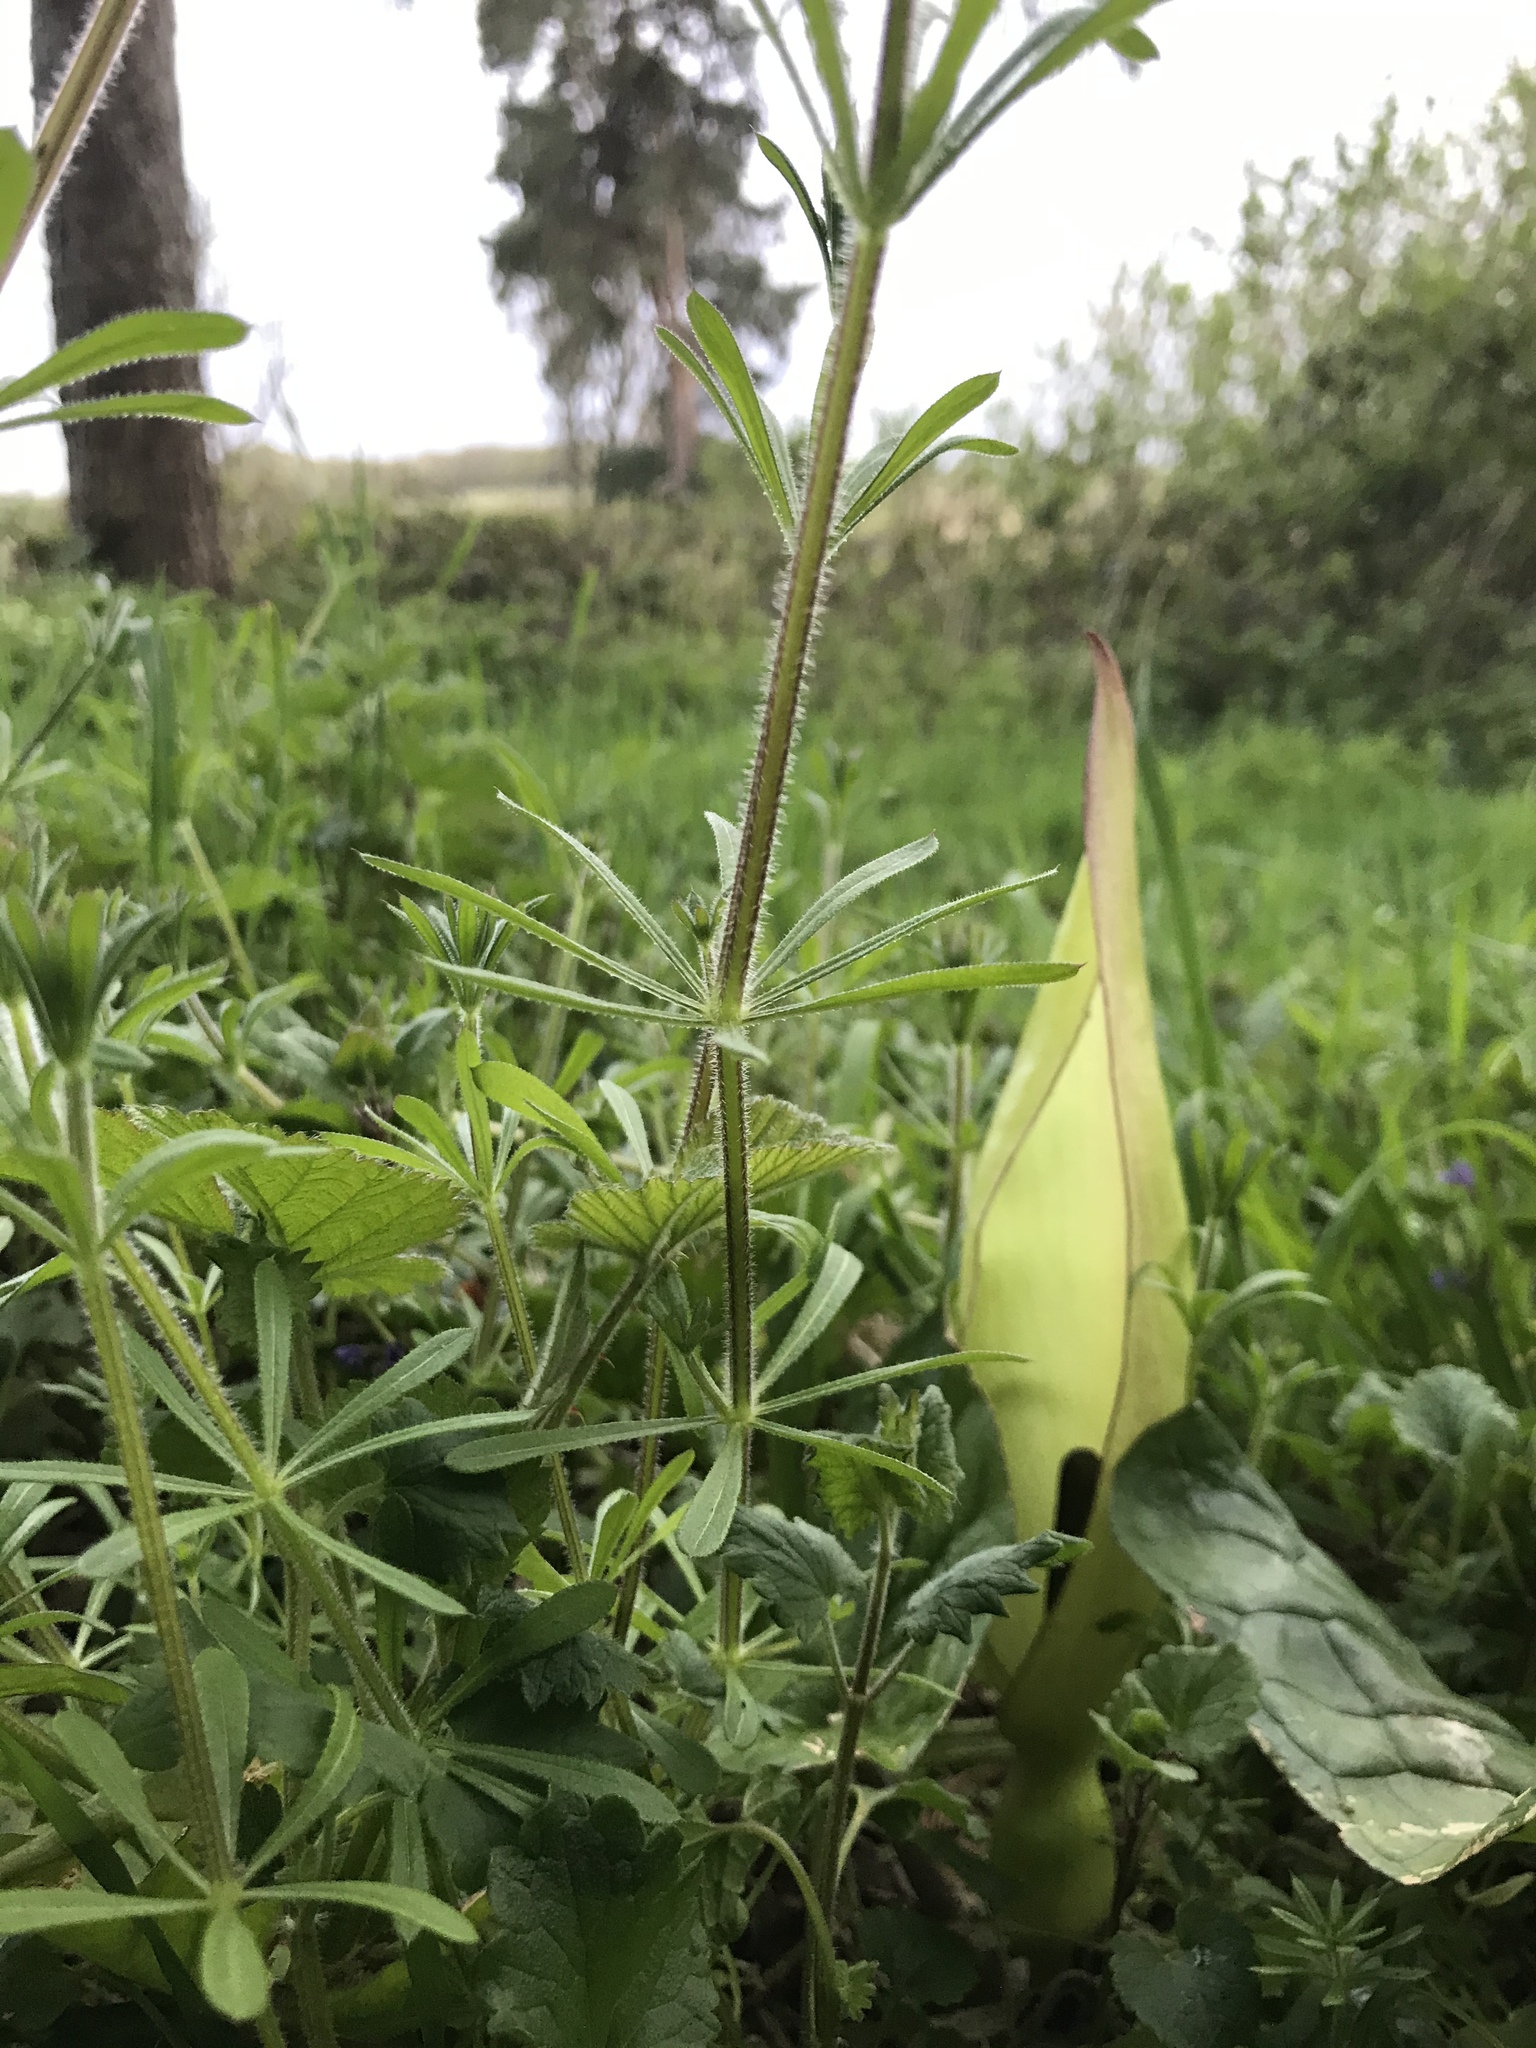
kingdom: Plantae
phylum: Tracheophyta
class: Liliopsida
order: Alismatales
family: Araceae
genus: Arum
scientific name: Arum maculatum
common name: Lords-and-ladies
